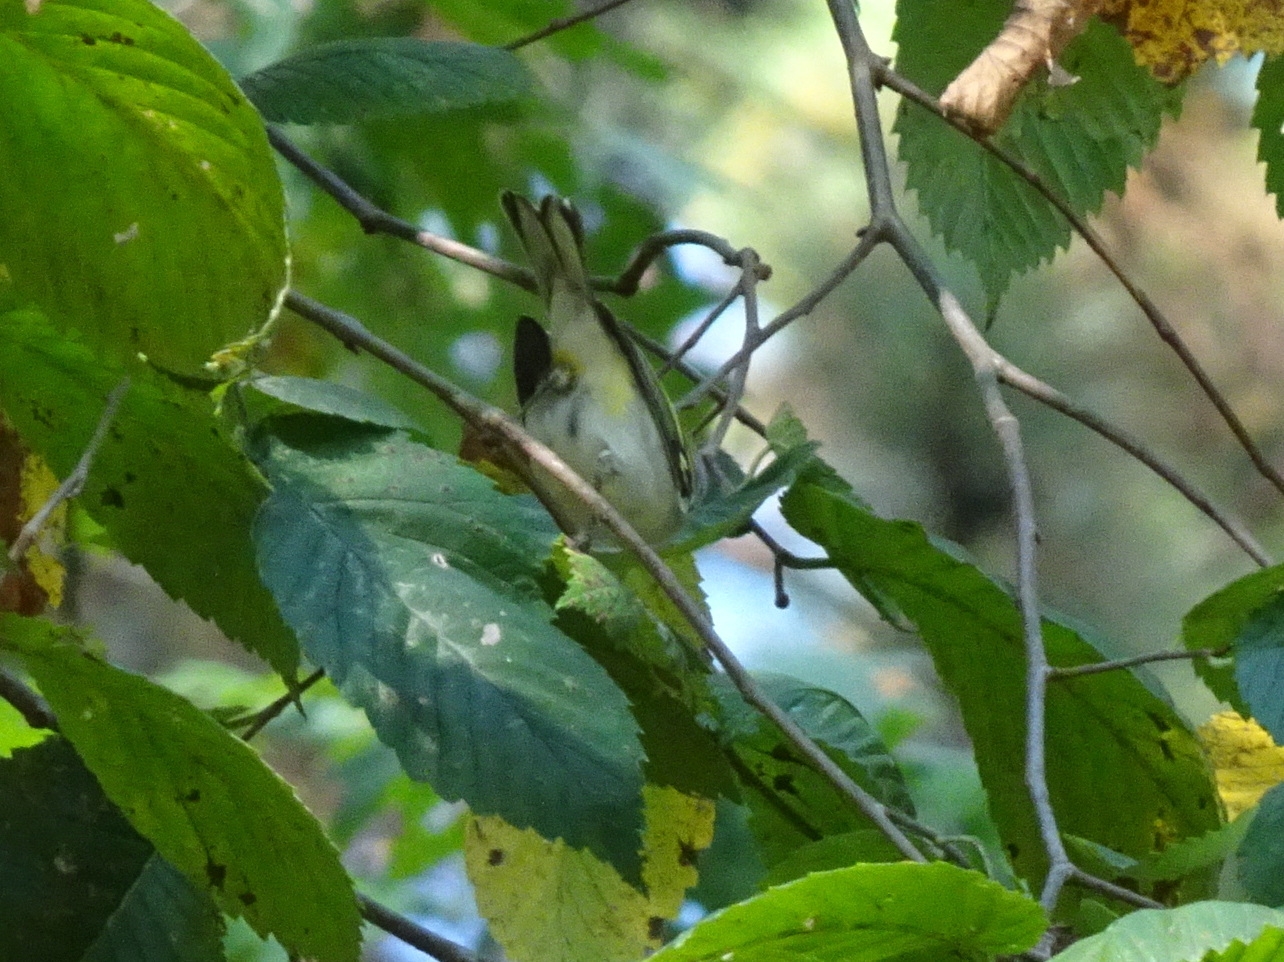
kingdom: Animalia
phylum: Chordata
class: Aves
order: Passeriformes
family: Parulidae
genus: Setophaga
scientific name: Setophaga pensylvanica
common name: Chestnut-sided warbler
